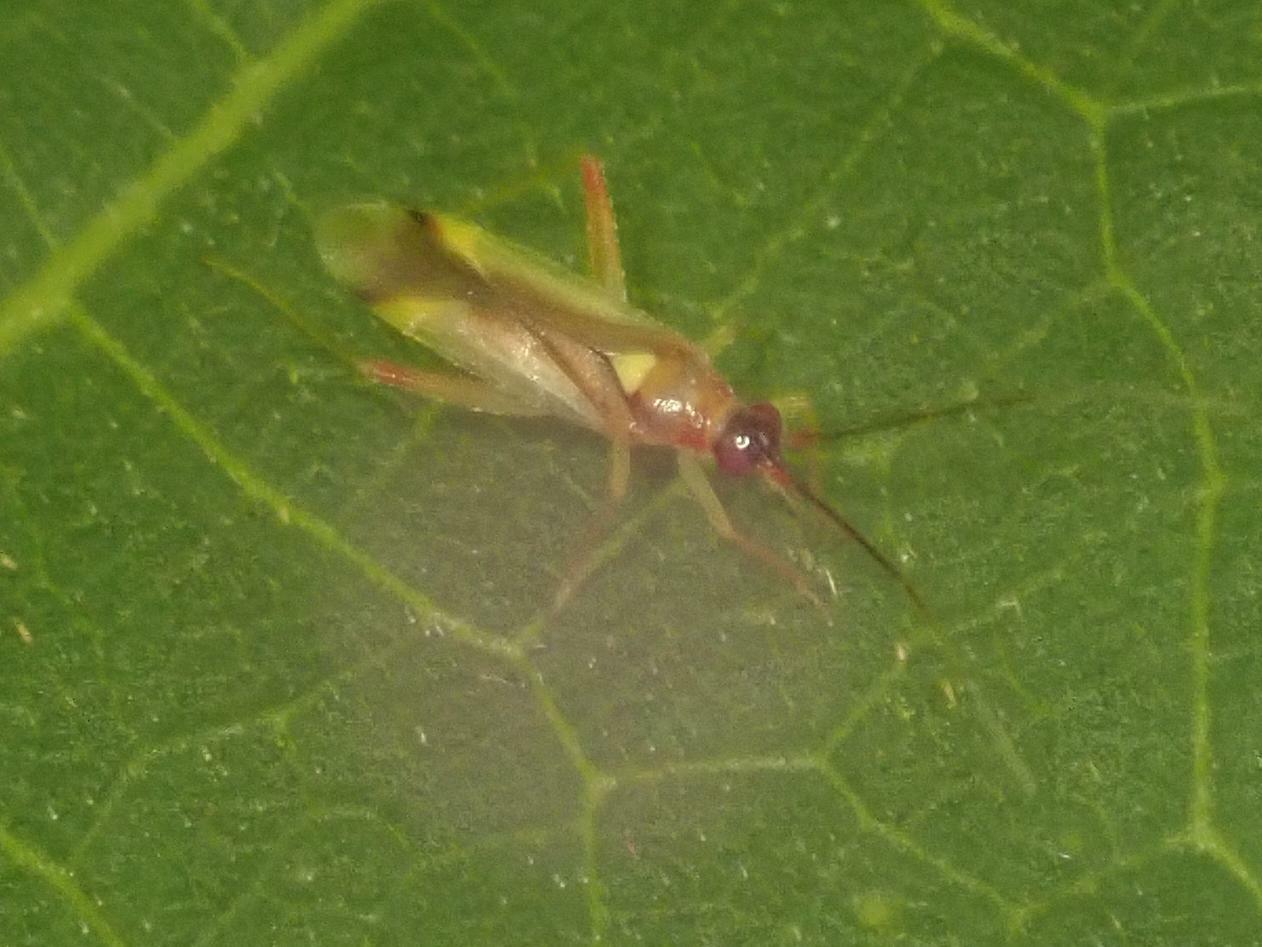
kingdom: Animalia
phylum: Arthropoda
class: Insecta
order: Hemiptera
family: Miridae
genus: Campyloneura
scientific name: Campyloneura virgula
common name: Predatory bug
